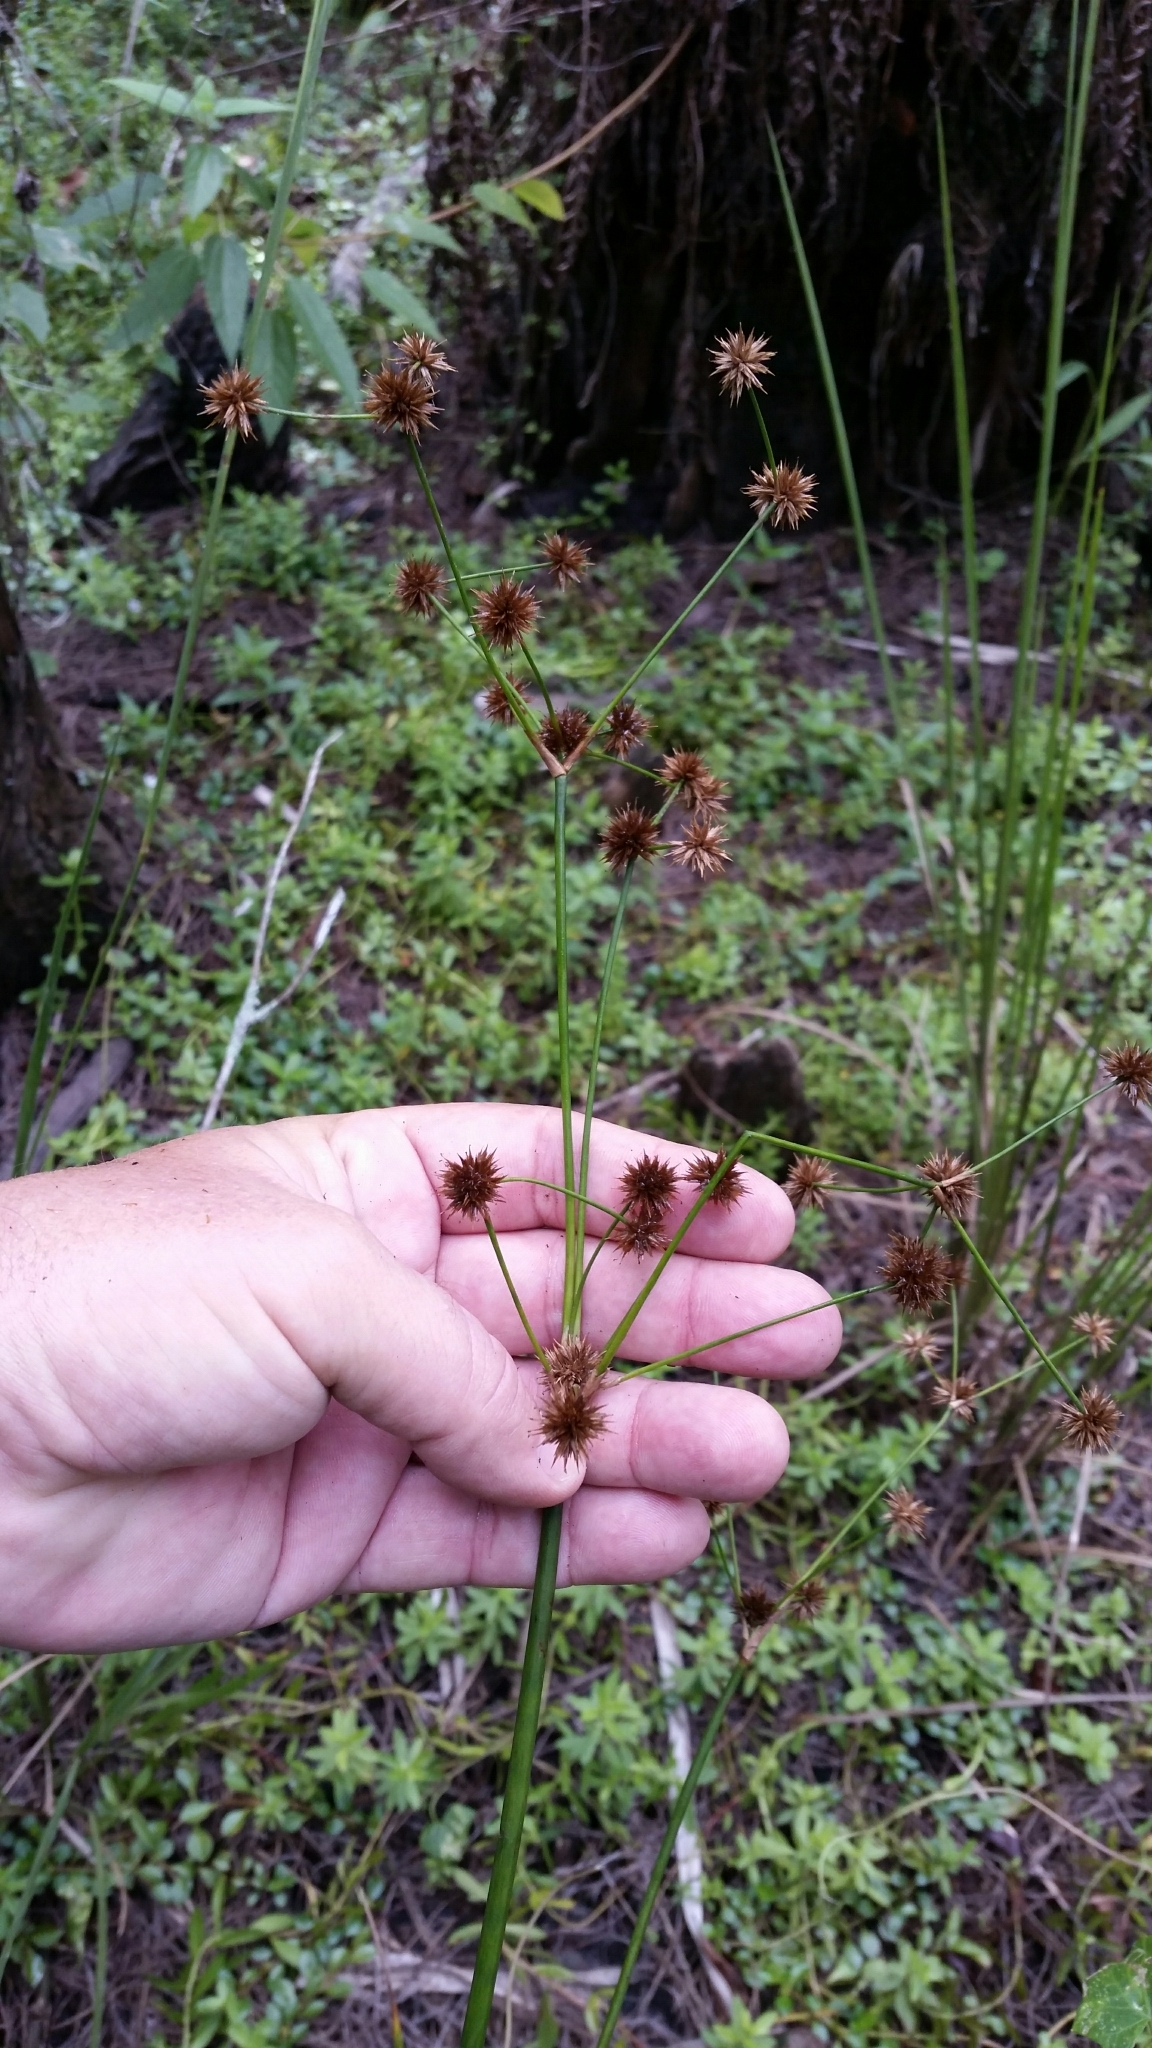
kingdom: Plantae
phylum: Tracheophyta
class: Liliopsida
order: Poales
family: Juncaceae
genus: Juncus
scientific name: Juncus paludosus
